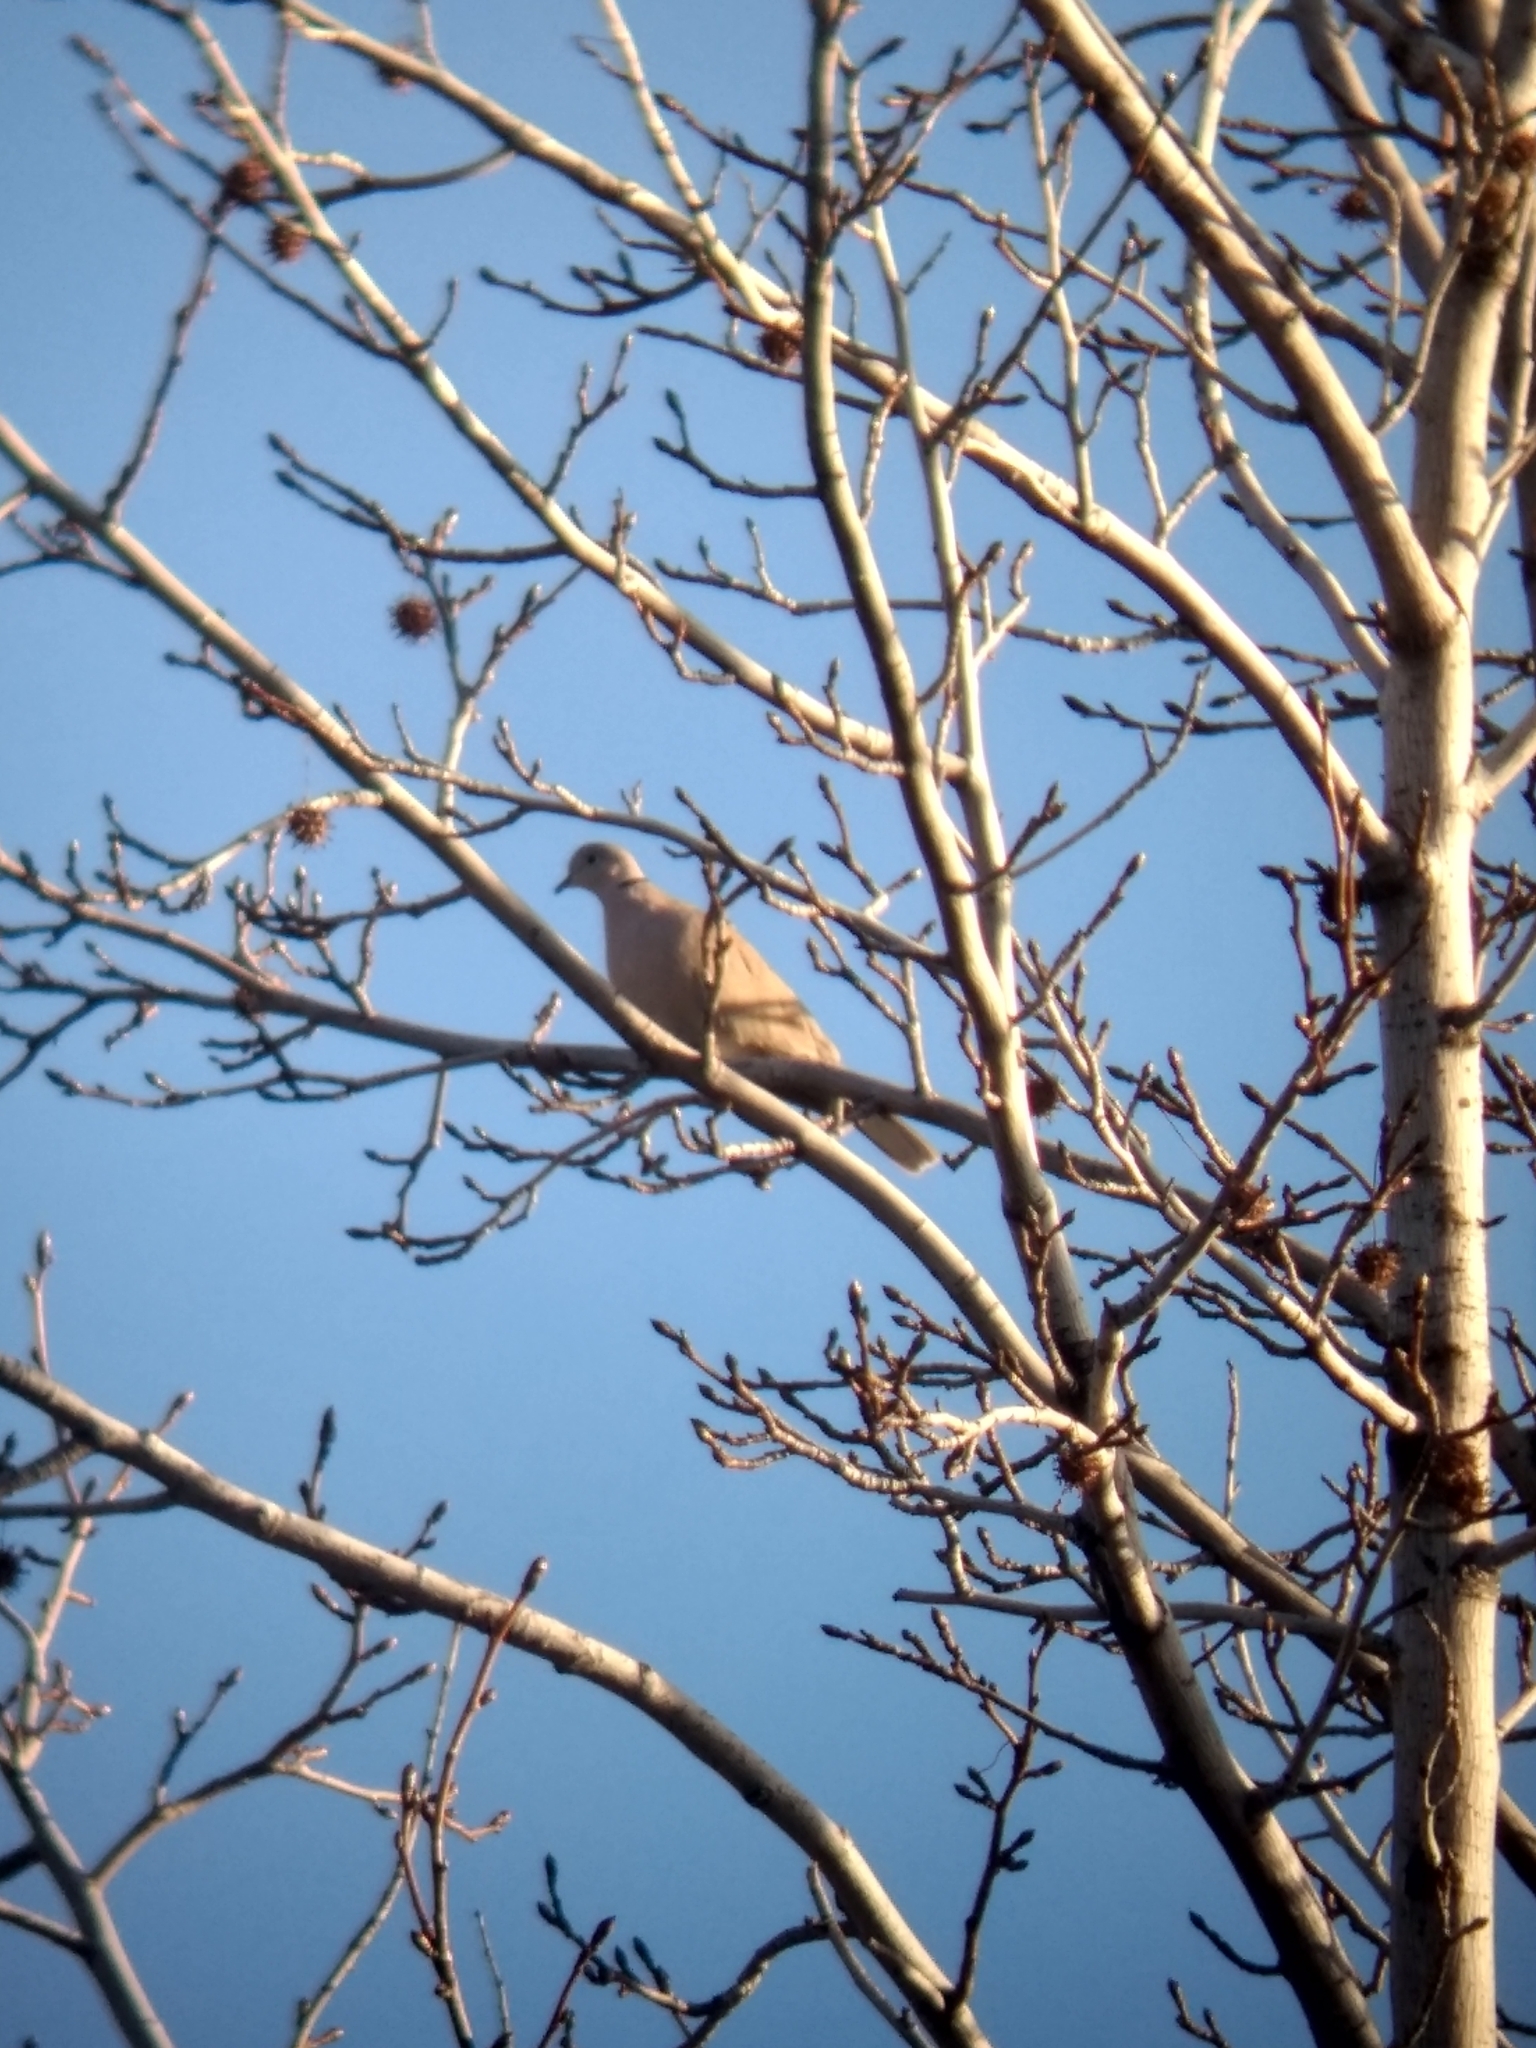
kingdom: Animalia
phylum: Chordata
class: Aves
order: Columbiformes
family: Columbidae
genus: Streptopelia
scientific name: Streptopelia decaocto
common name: Eurasian collared dove
